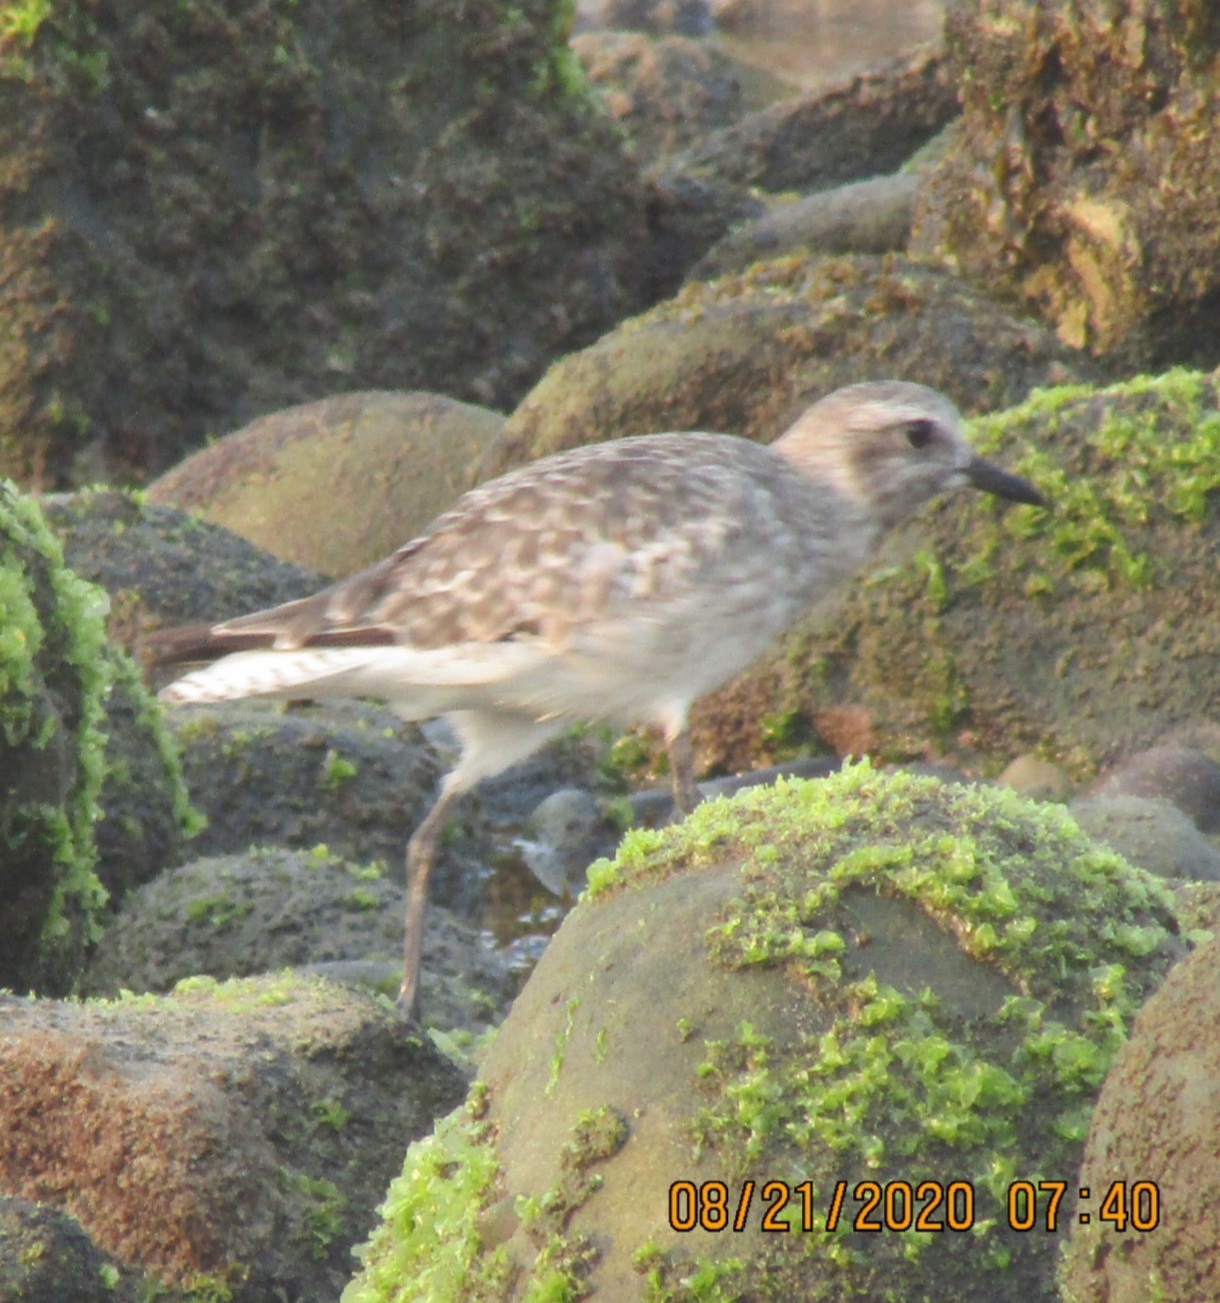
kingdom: Animalia
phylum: Chordata
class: Aves
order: Charadriiformes
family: Charadriidae
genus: Pluvialis
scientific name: Pluvialis squatarola
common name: Grey plover
